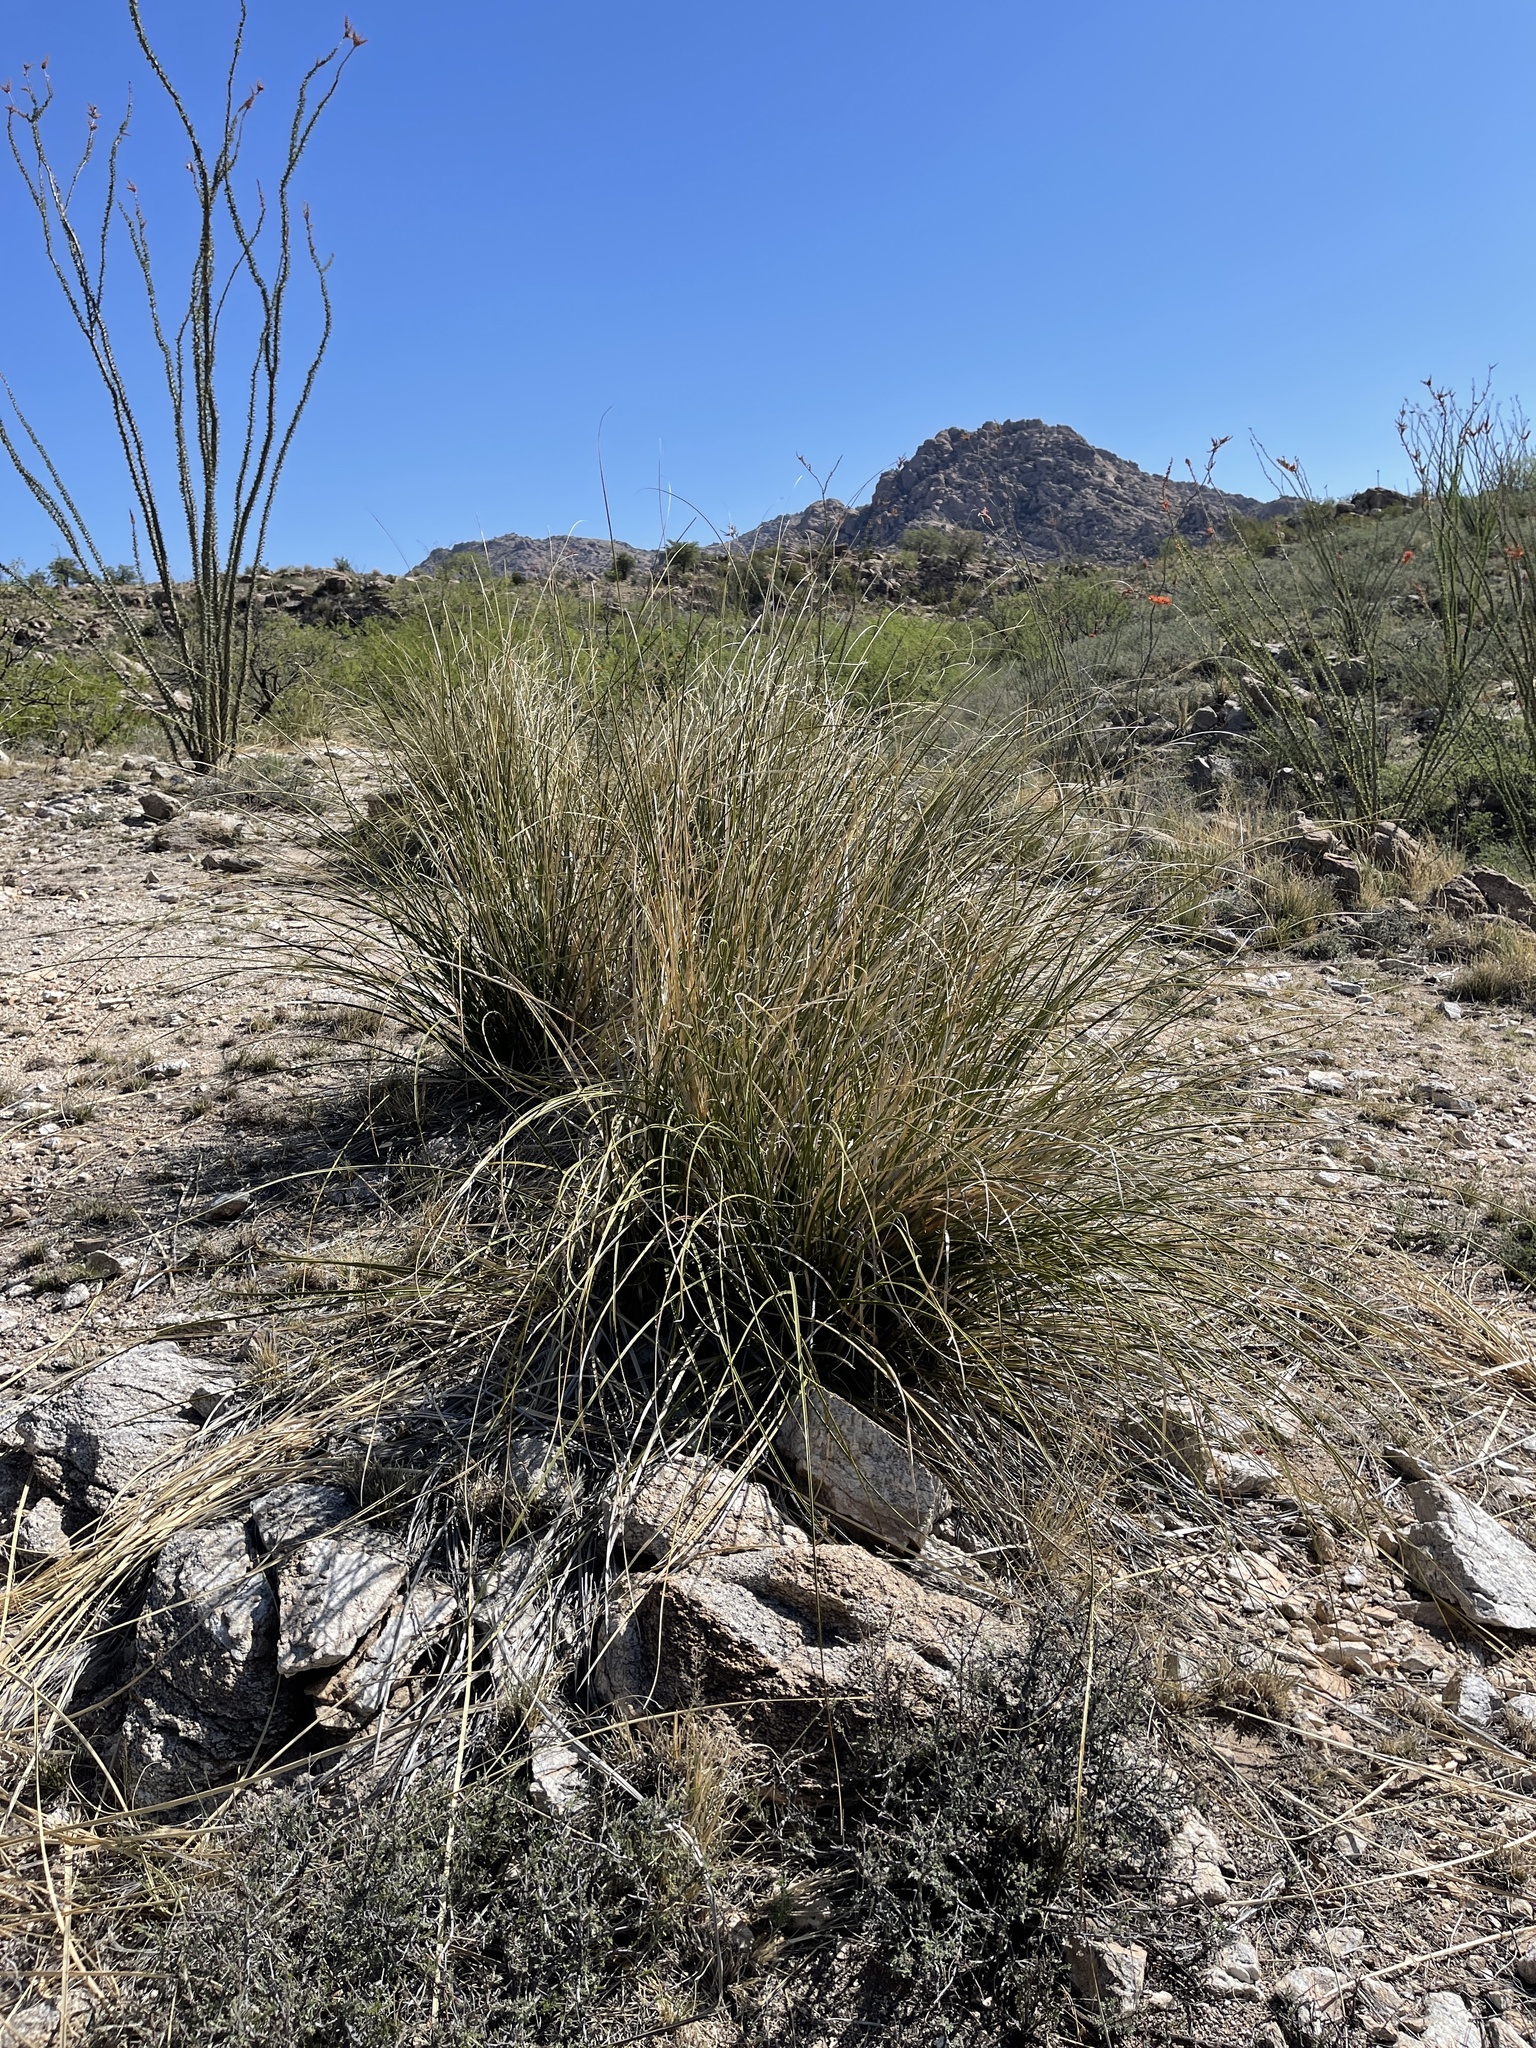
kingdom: Plantae
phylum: Tracheophyta
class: Liliopsida
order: Asparagales
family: Asparagaceae
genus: Nolina
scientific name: Nolina microcarpa
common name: Bear-grass
